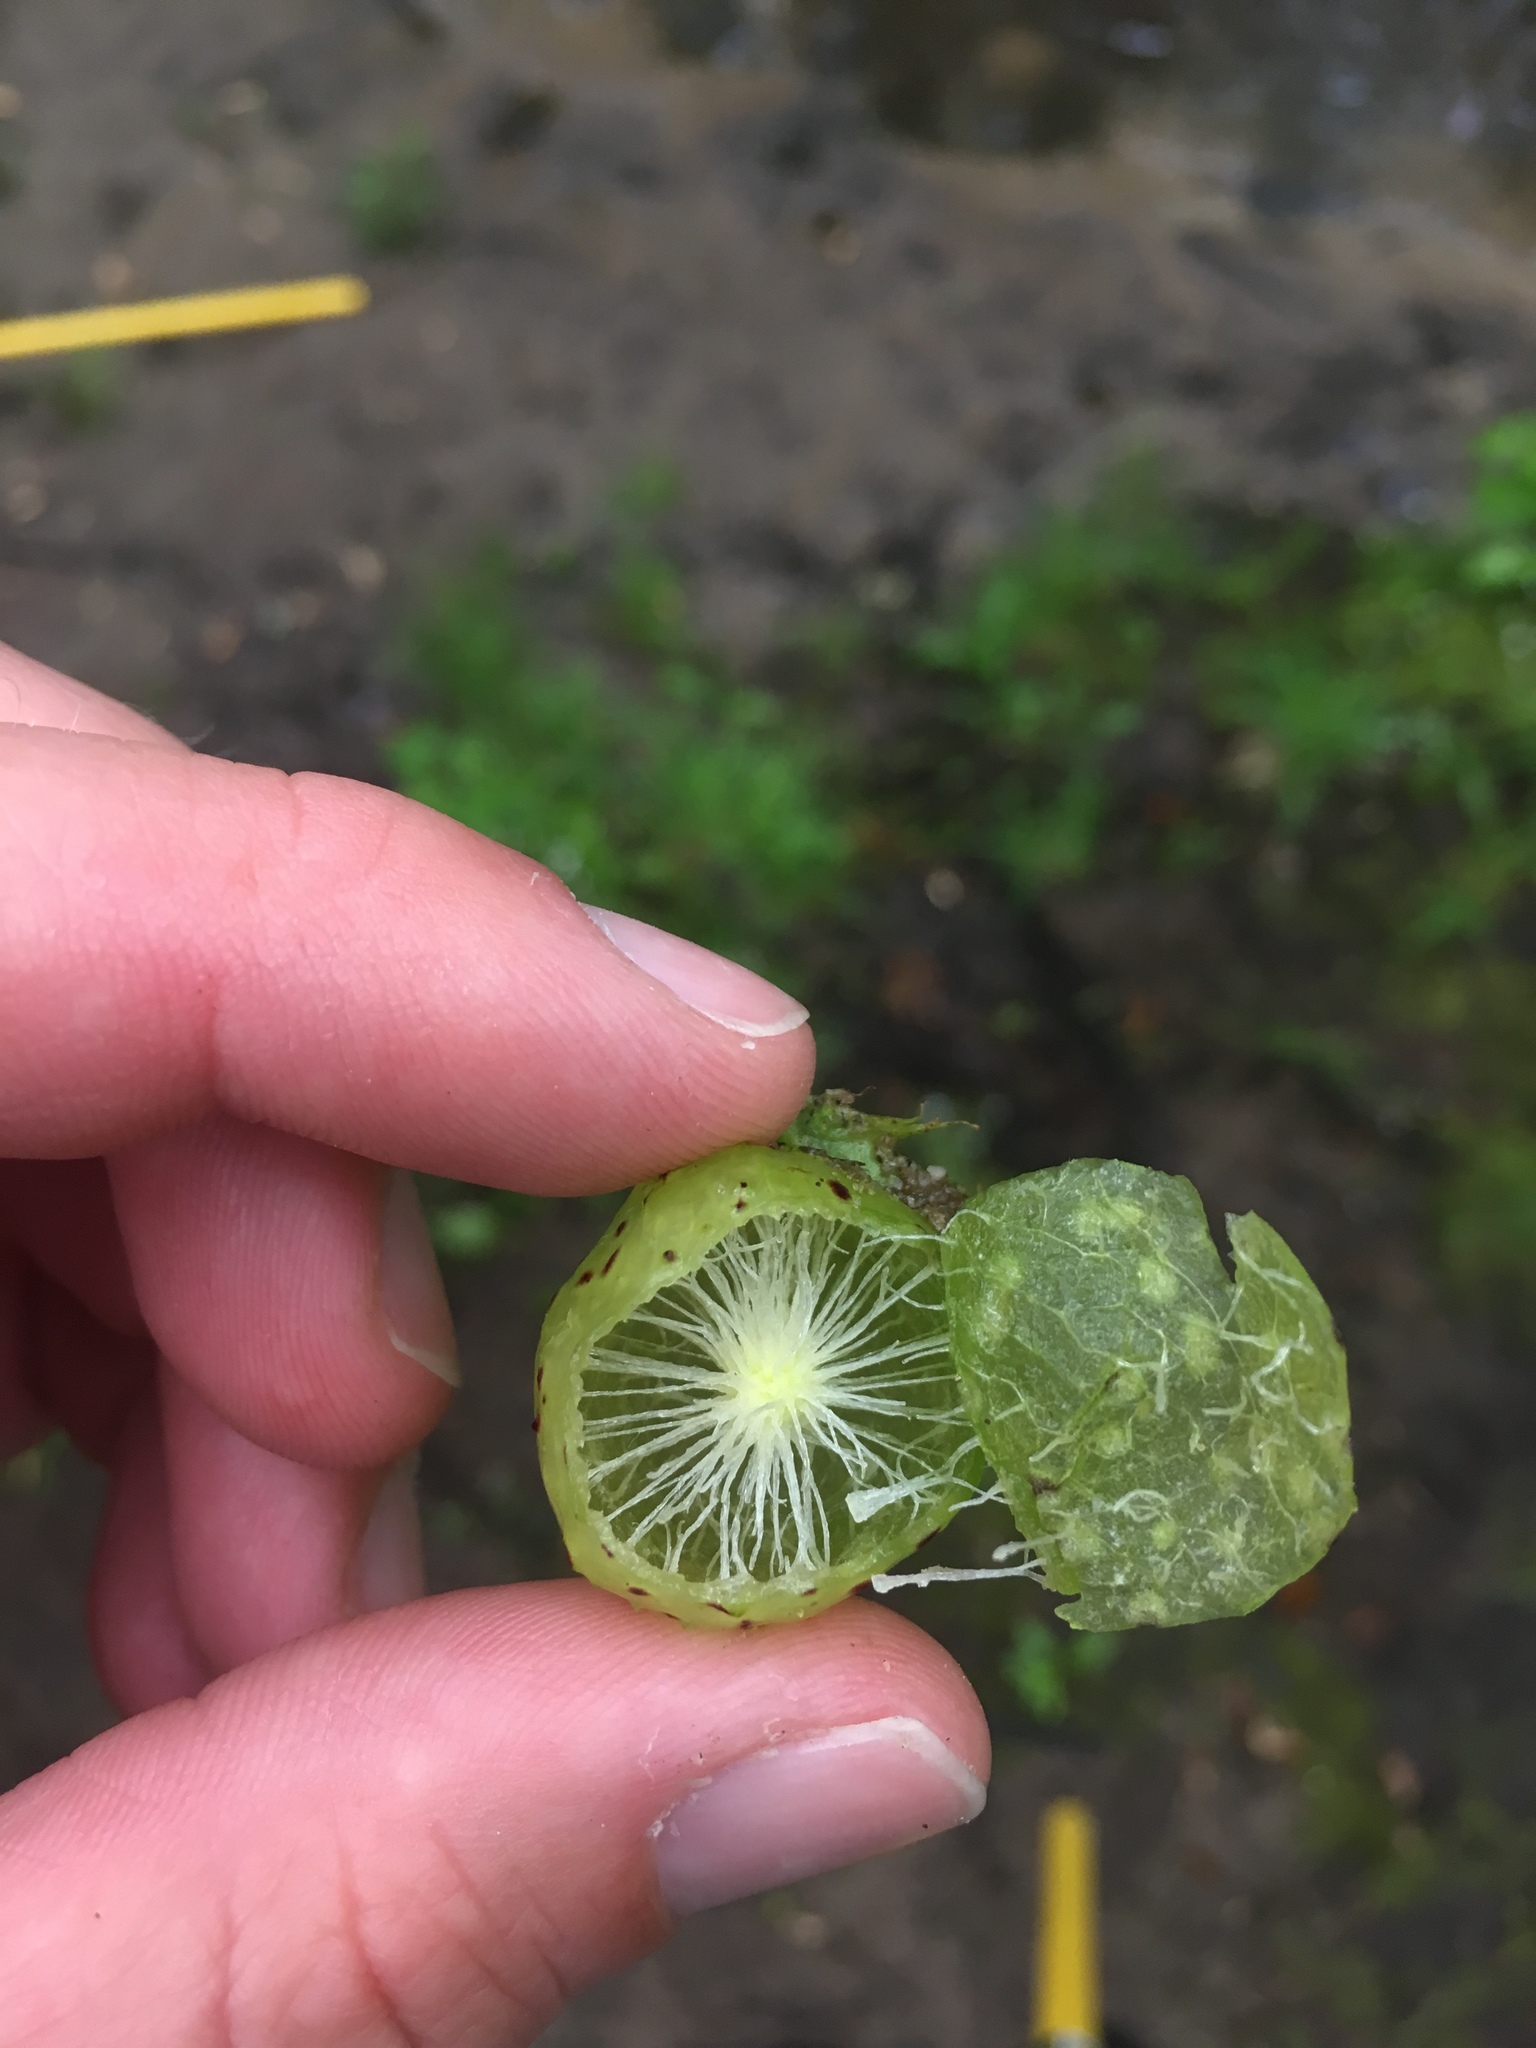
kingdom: Animalia
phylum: Arthropoda
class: Insecta
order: Hymenoptera
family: Cynipidae
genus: Amphibolips
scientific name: Amphibolips
